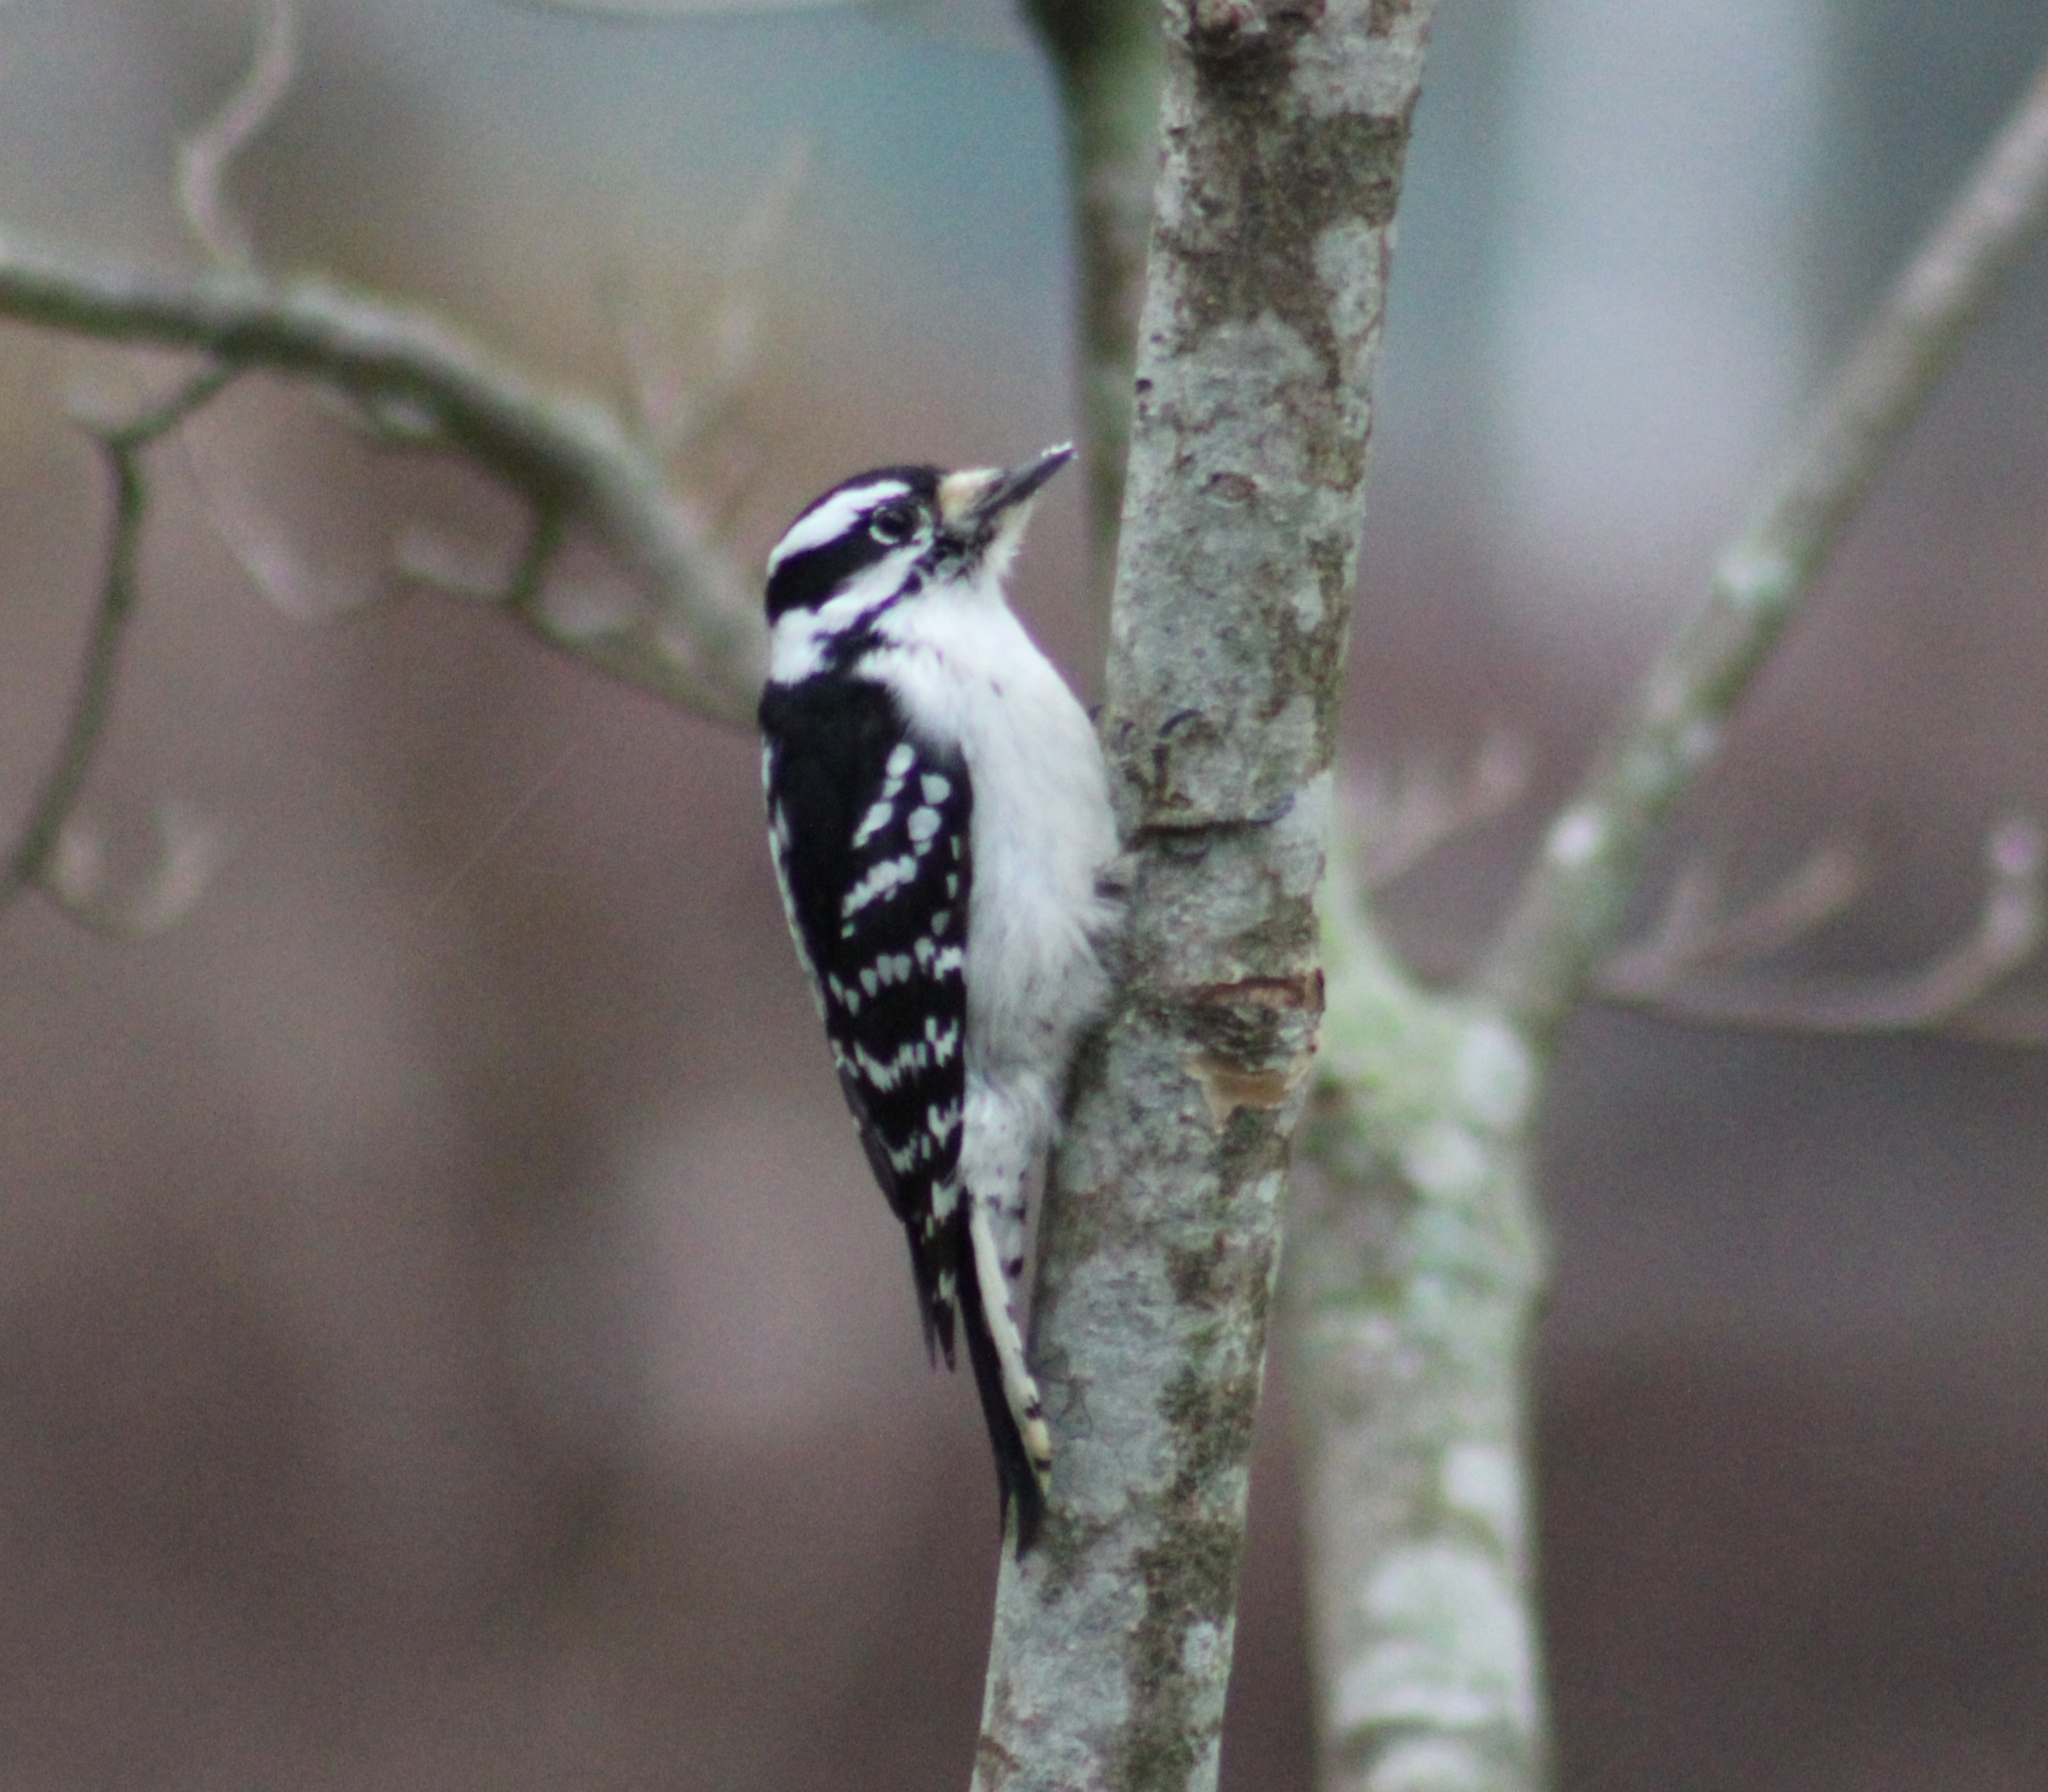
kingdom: Animalia
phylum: Chordata
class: Aves
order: Piciformes
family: Picidae
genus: Dryobates
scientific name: Dryobates pubescens
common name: Downy woodpecker
